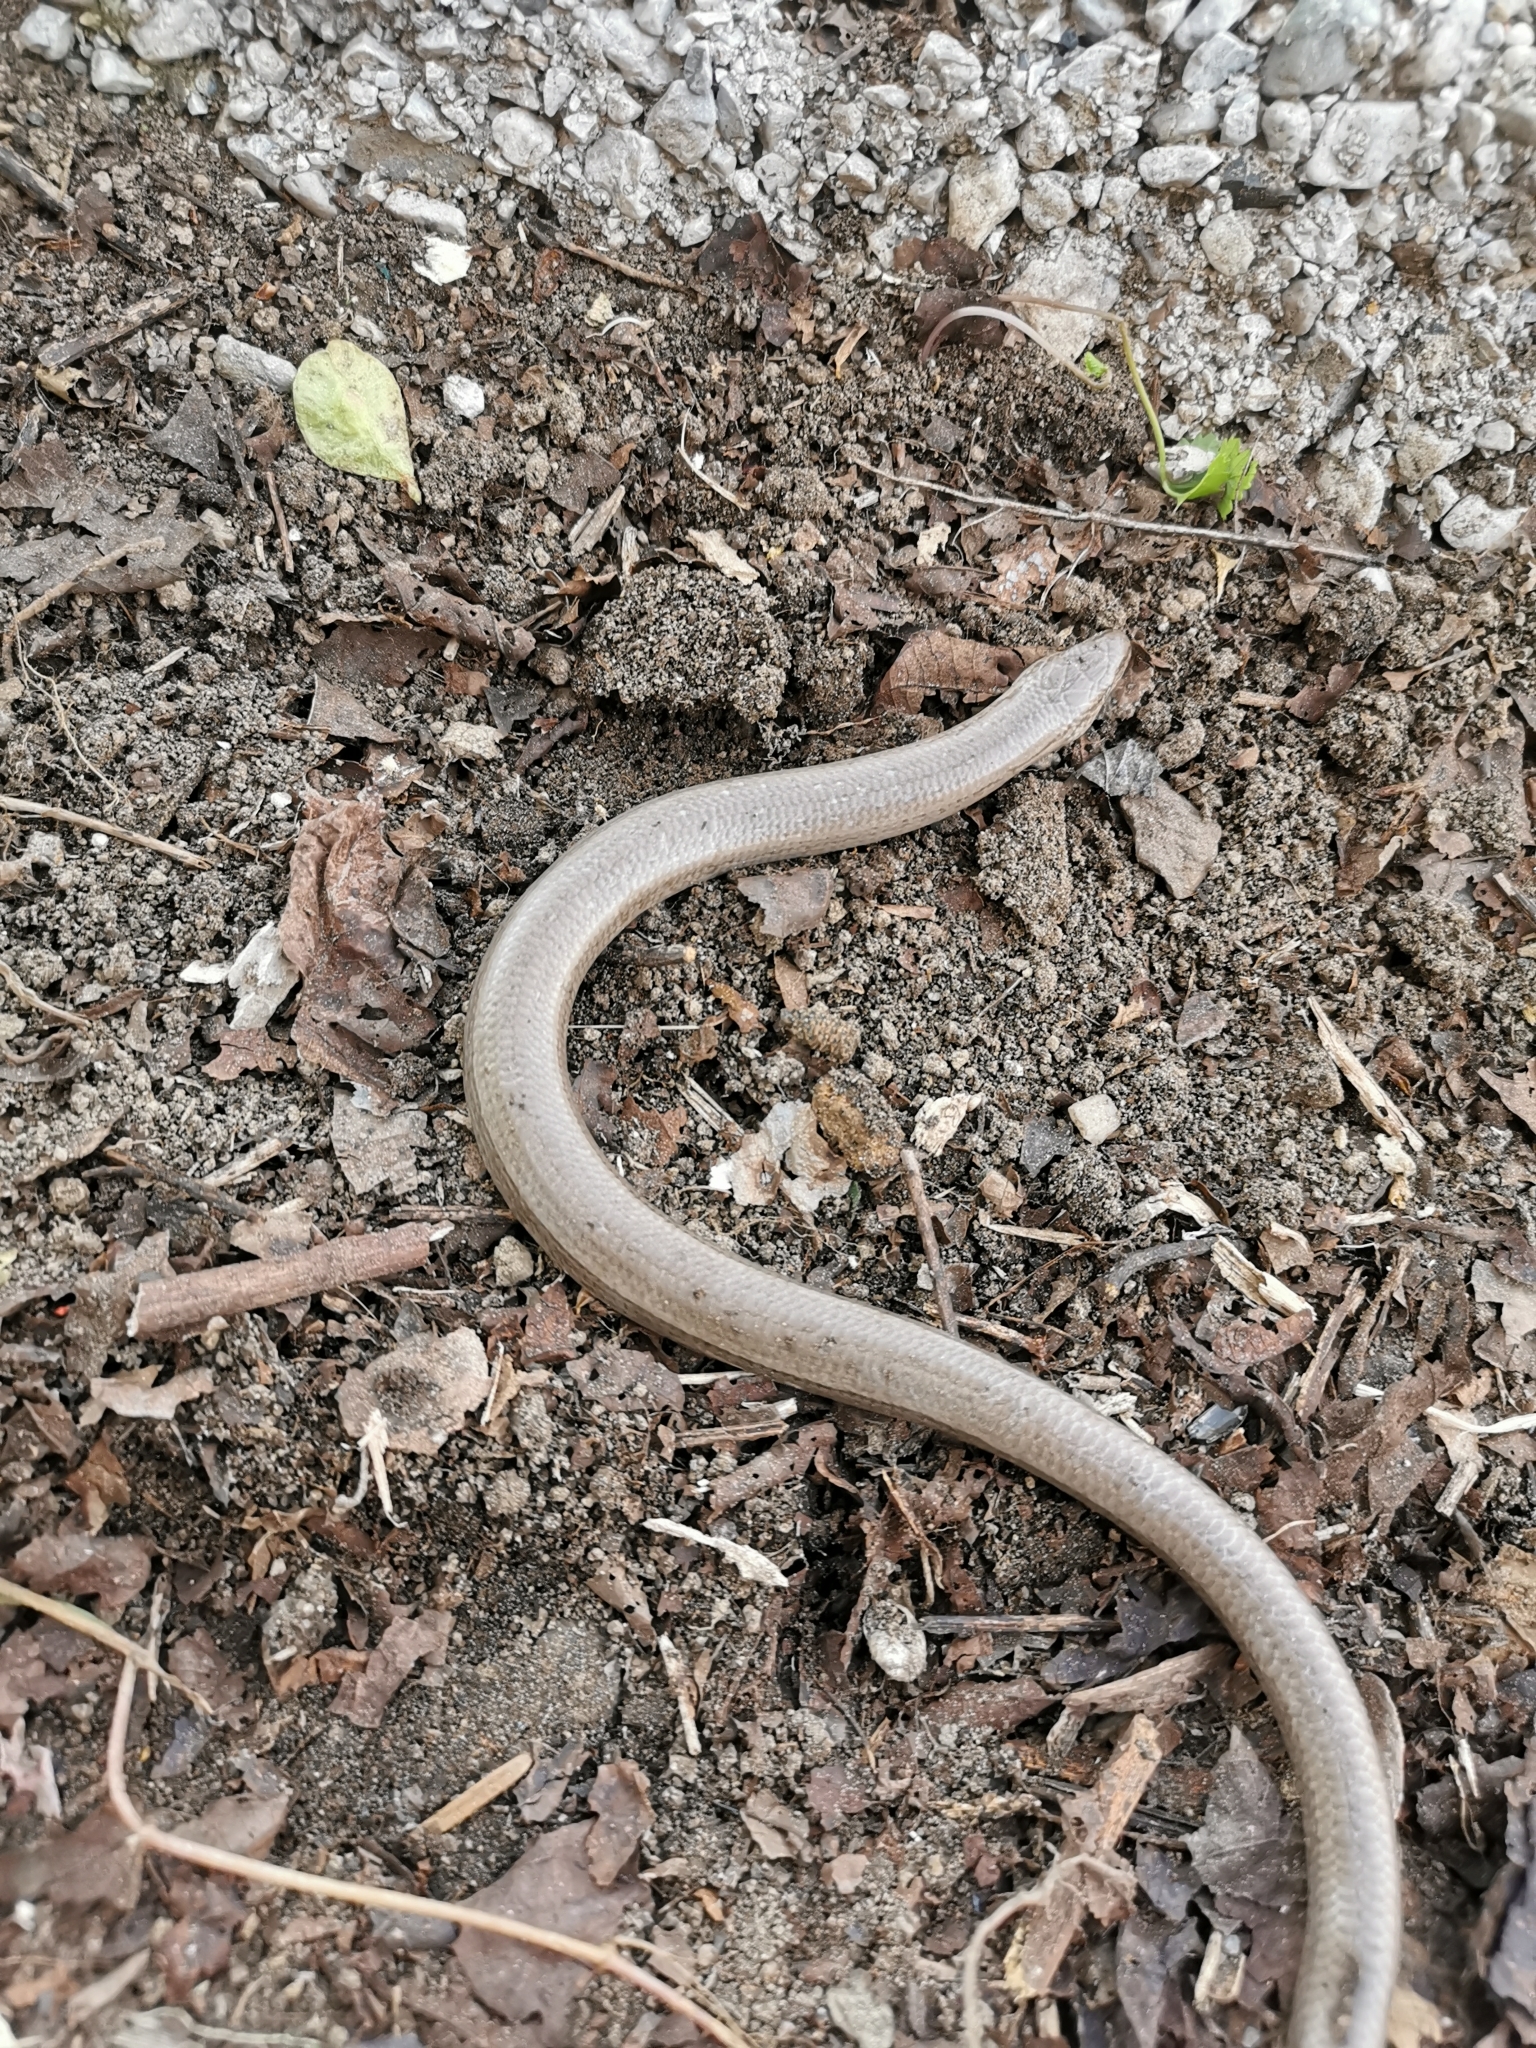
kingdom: Animalia
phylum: Chordata
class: Squamata
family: Anguidae
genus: Anguis
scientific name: Anguis fragilis
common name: Slow worm
